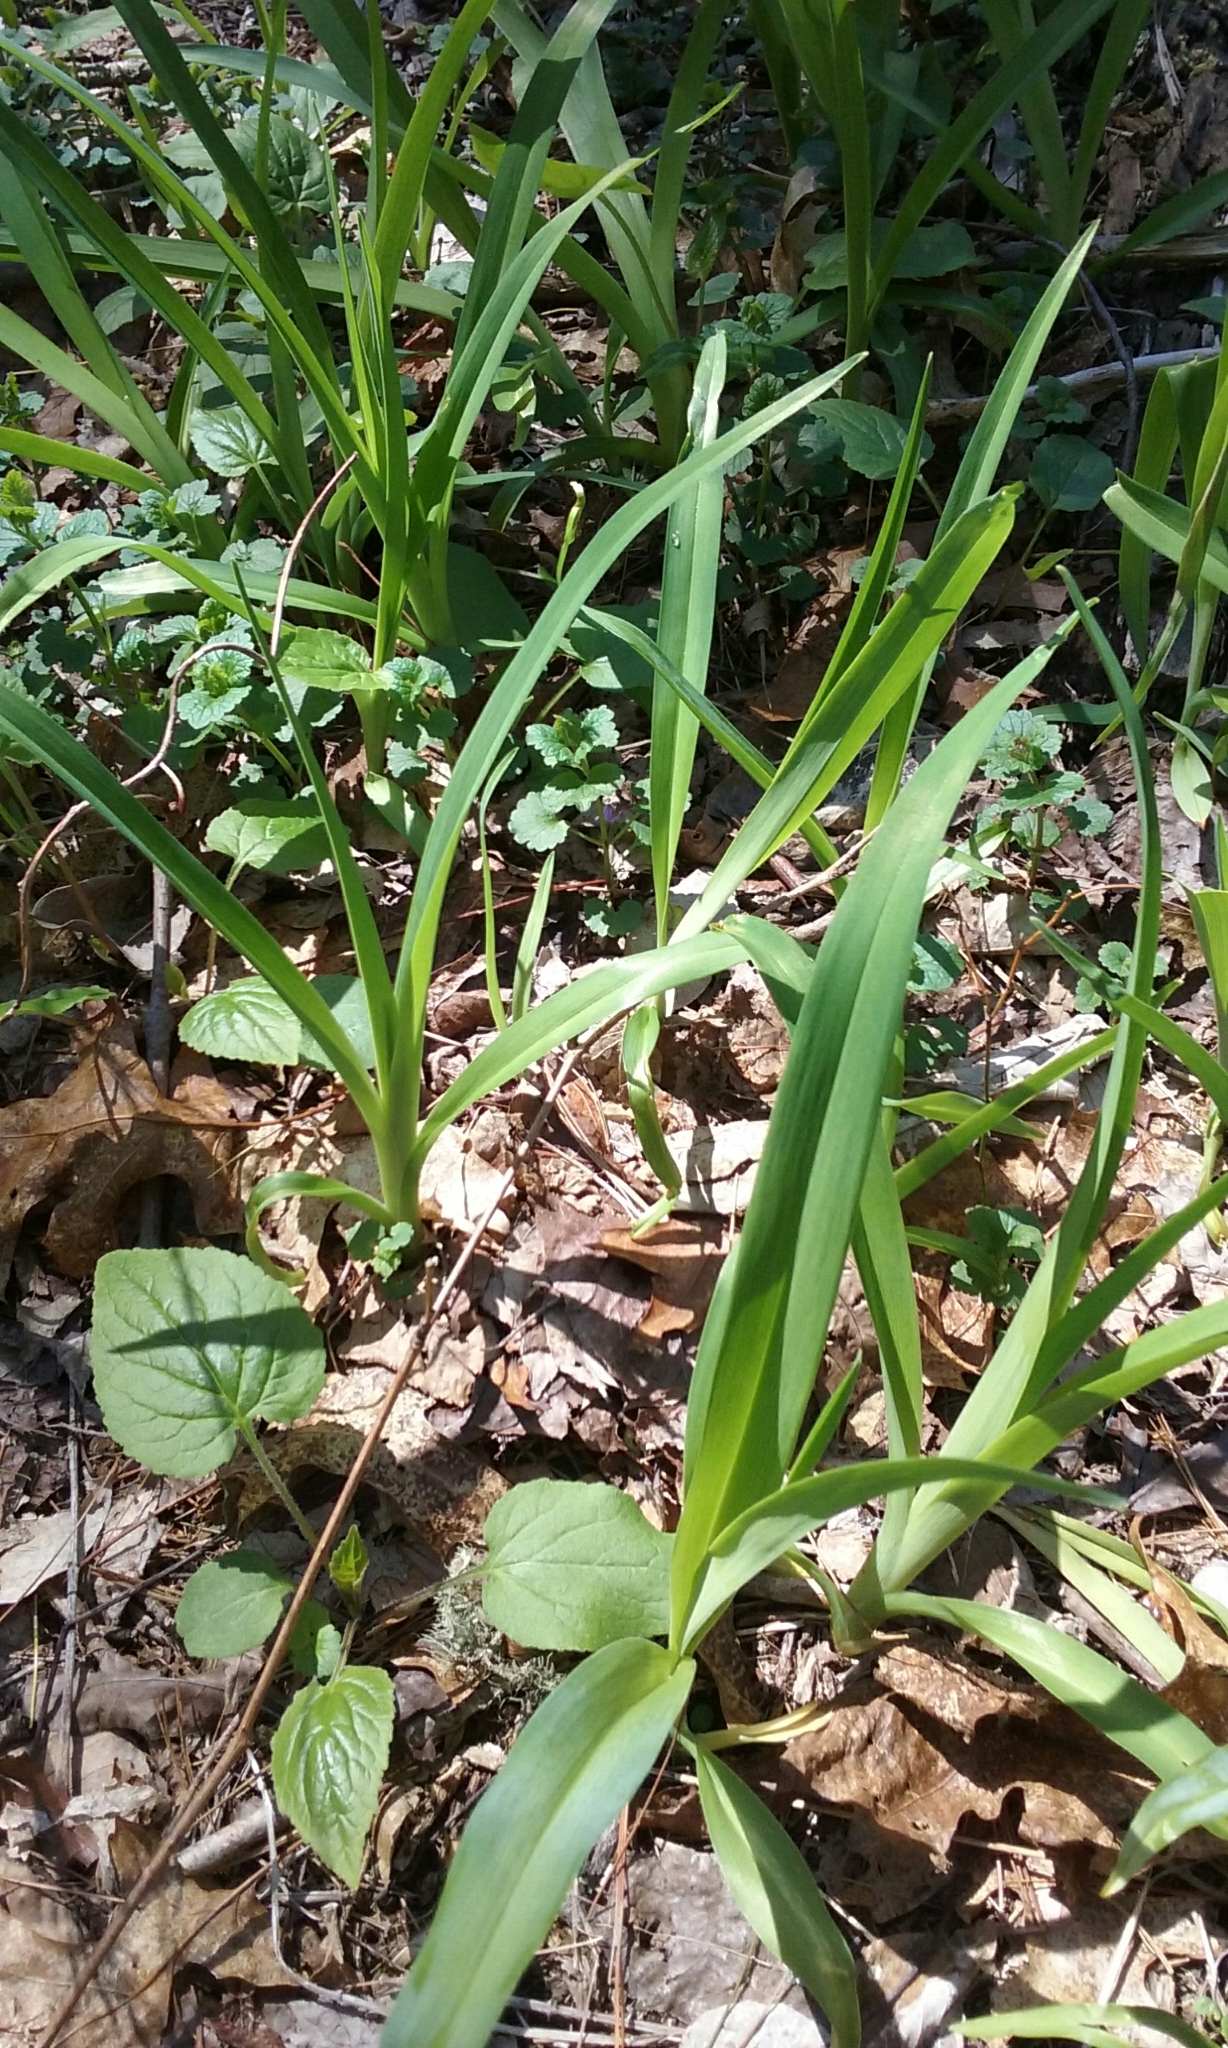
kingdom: Plantae
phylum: Tracheophyta
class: Liliopsida
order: Asparagales
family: Asphodelaceae
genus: Hemerocallis
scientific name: Hemerocallis
